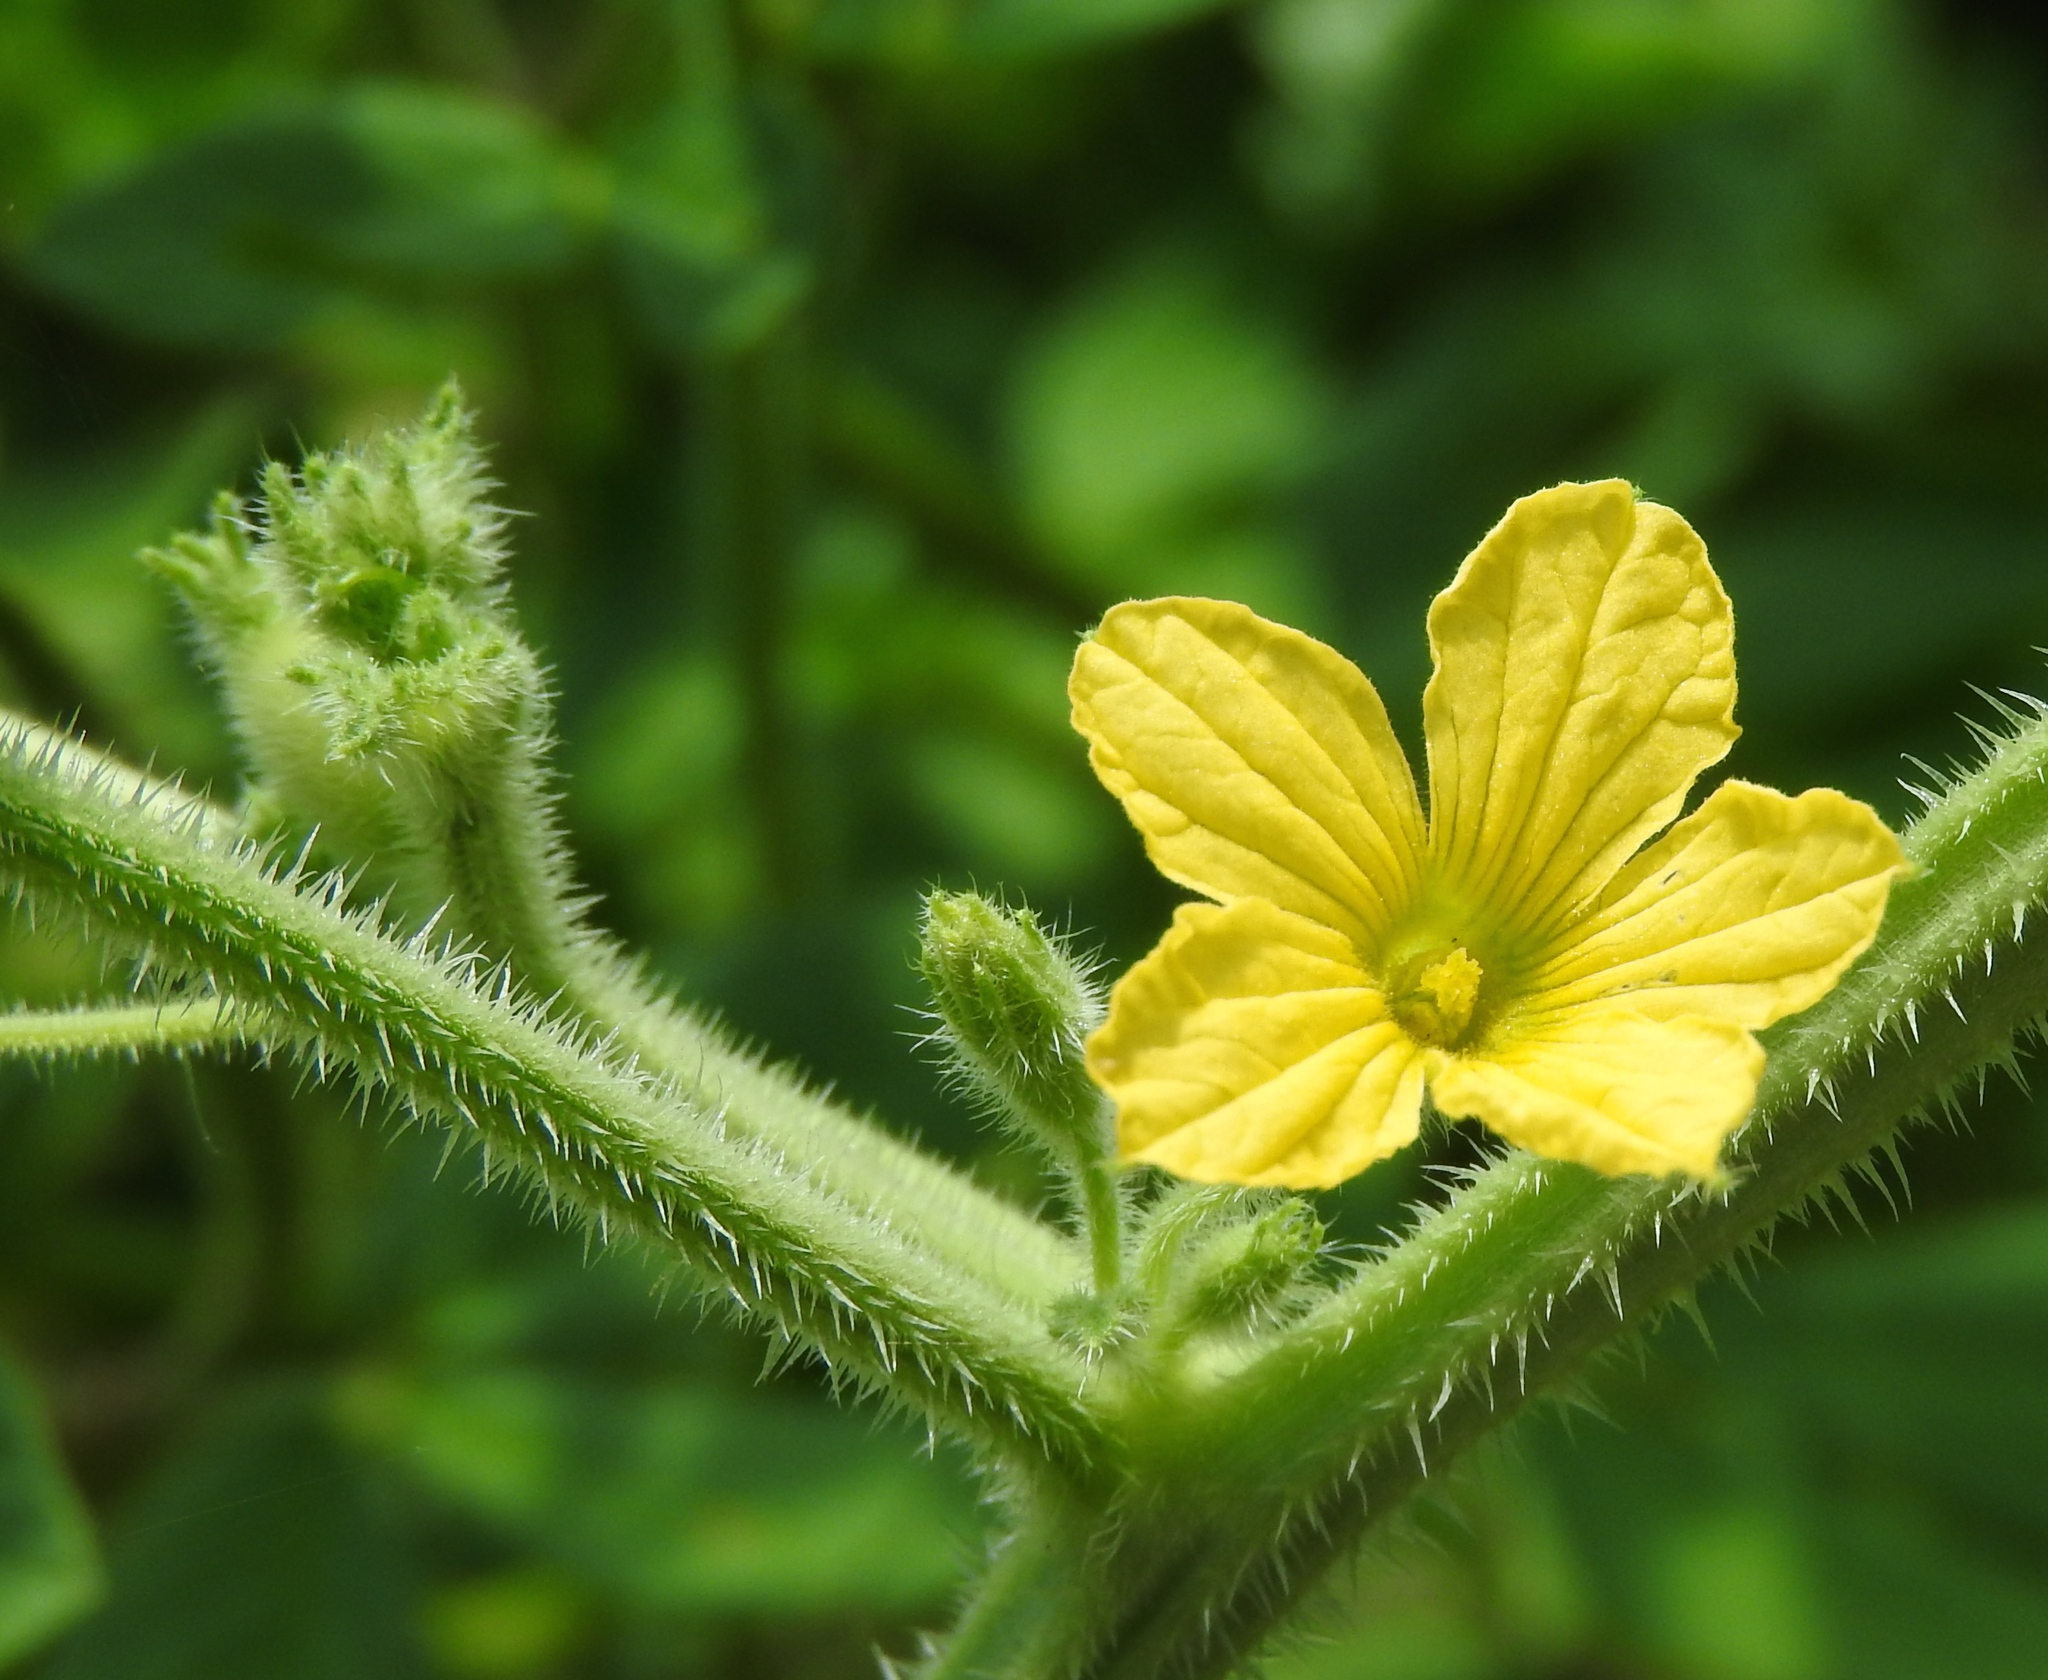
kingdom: Plantae
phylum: Tracheophyta
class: Magnoliopsida
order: Cucurbitales
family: Cucurbitaceae
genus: Cucumis
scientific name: Cucumis dipsaceus
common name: Hedgehog gourd
